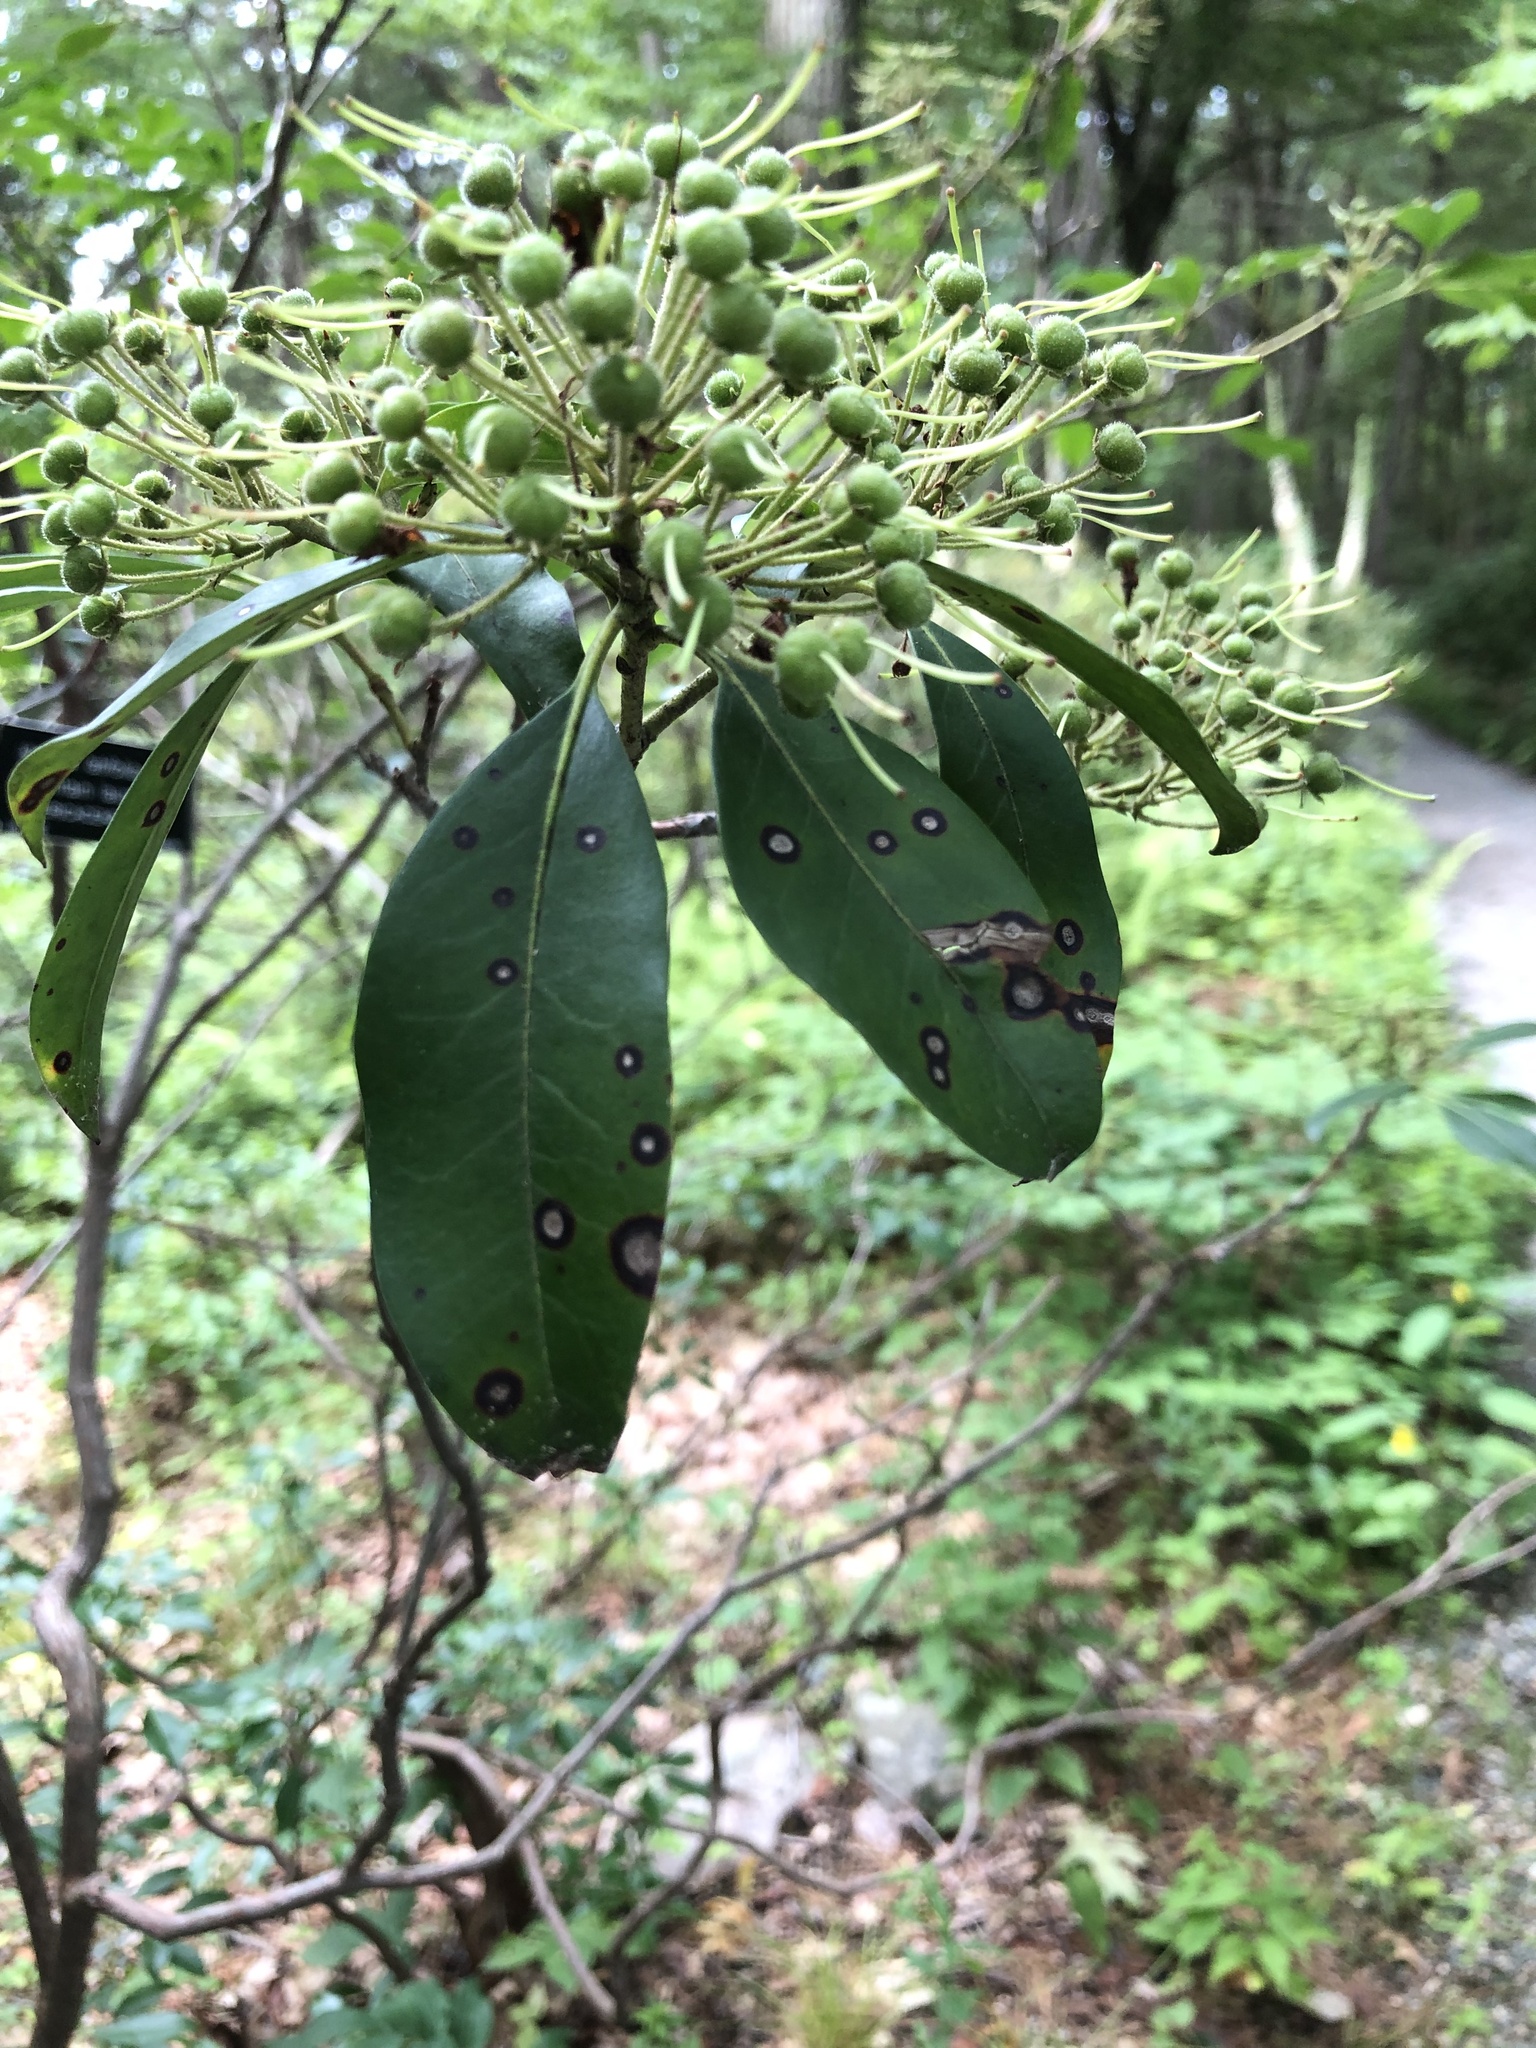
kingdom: Plantae
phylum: Tracheophyta
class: Magnoliopsida
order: Ericales
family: Ericaceae
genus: Kalmia
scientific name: Kalmia latifolia
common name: Mountain-laurel
